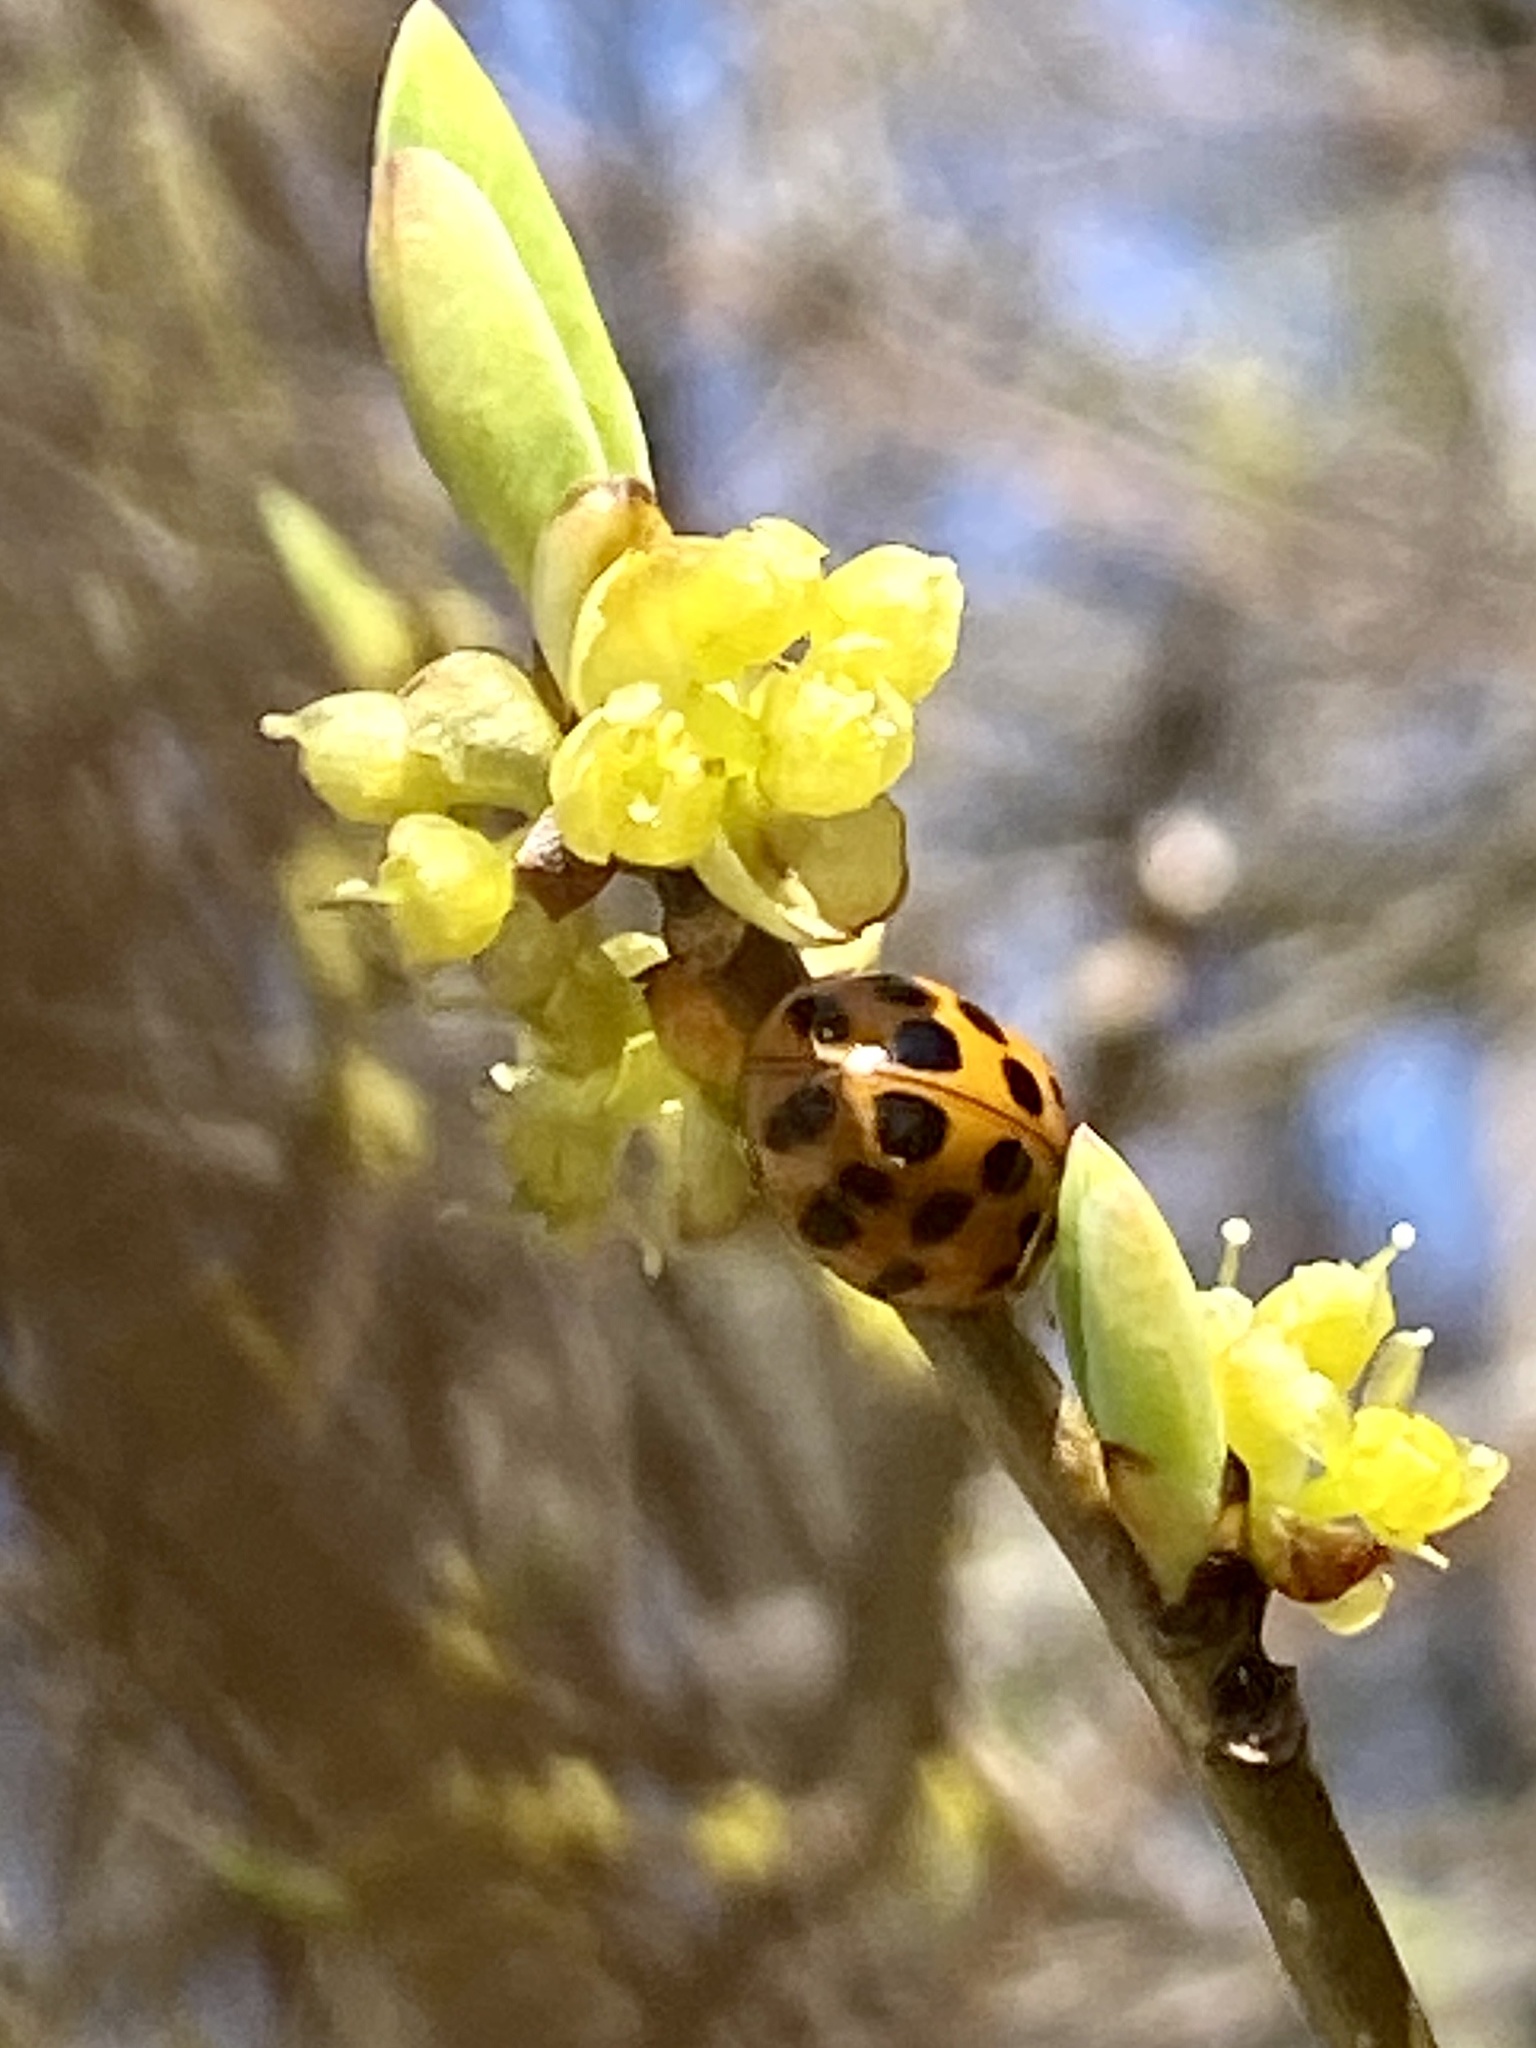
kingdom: Animalia
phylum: Arthropoda
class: Insecta
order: Coleoptera
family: Coccinellidae
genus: Harmonia
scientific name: Harmonia axyridis
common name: Harlequin ladybird
